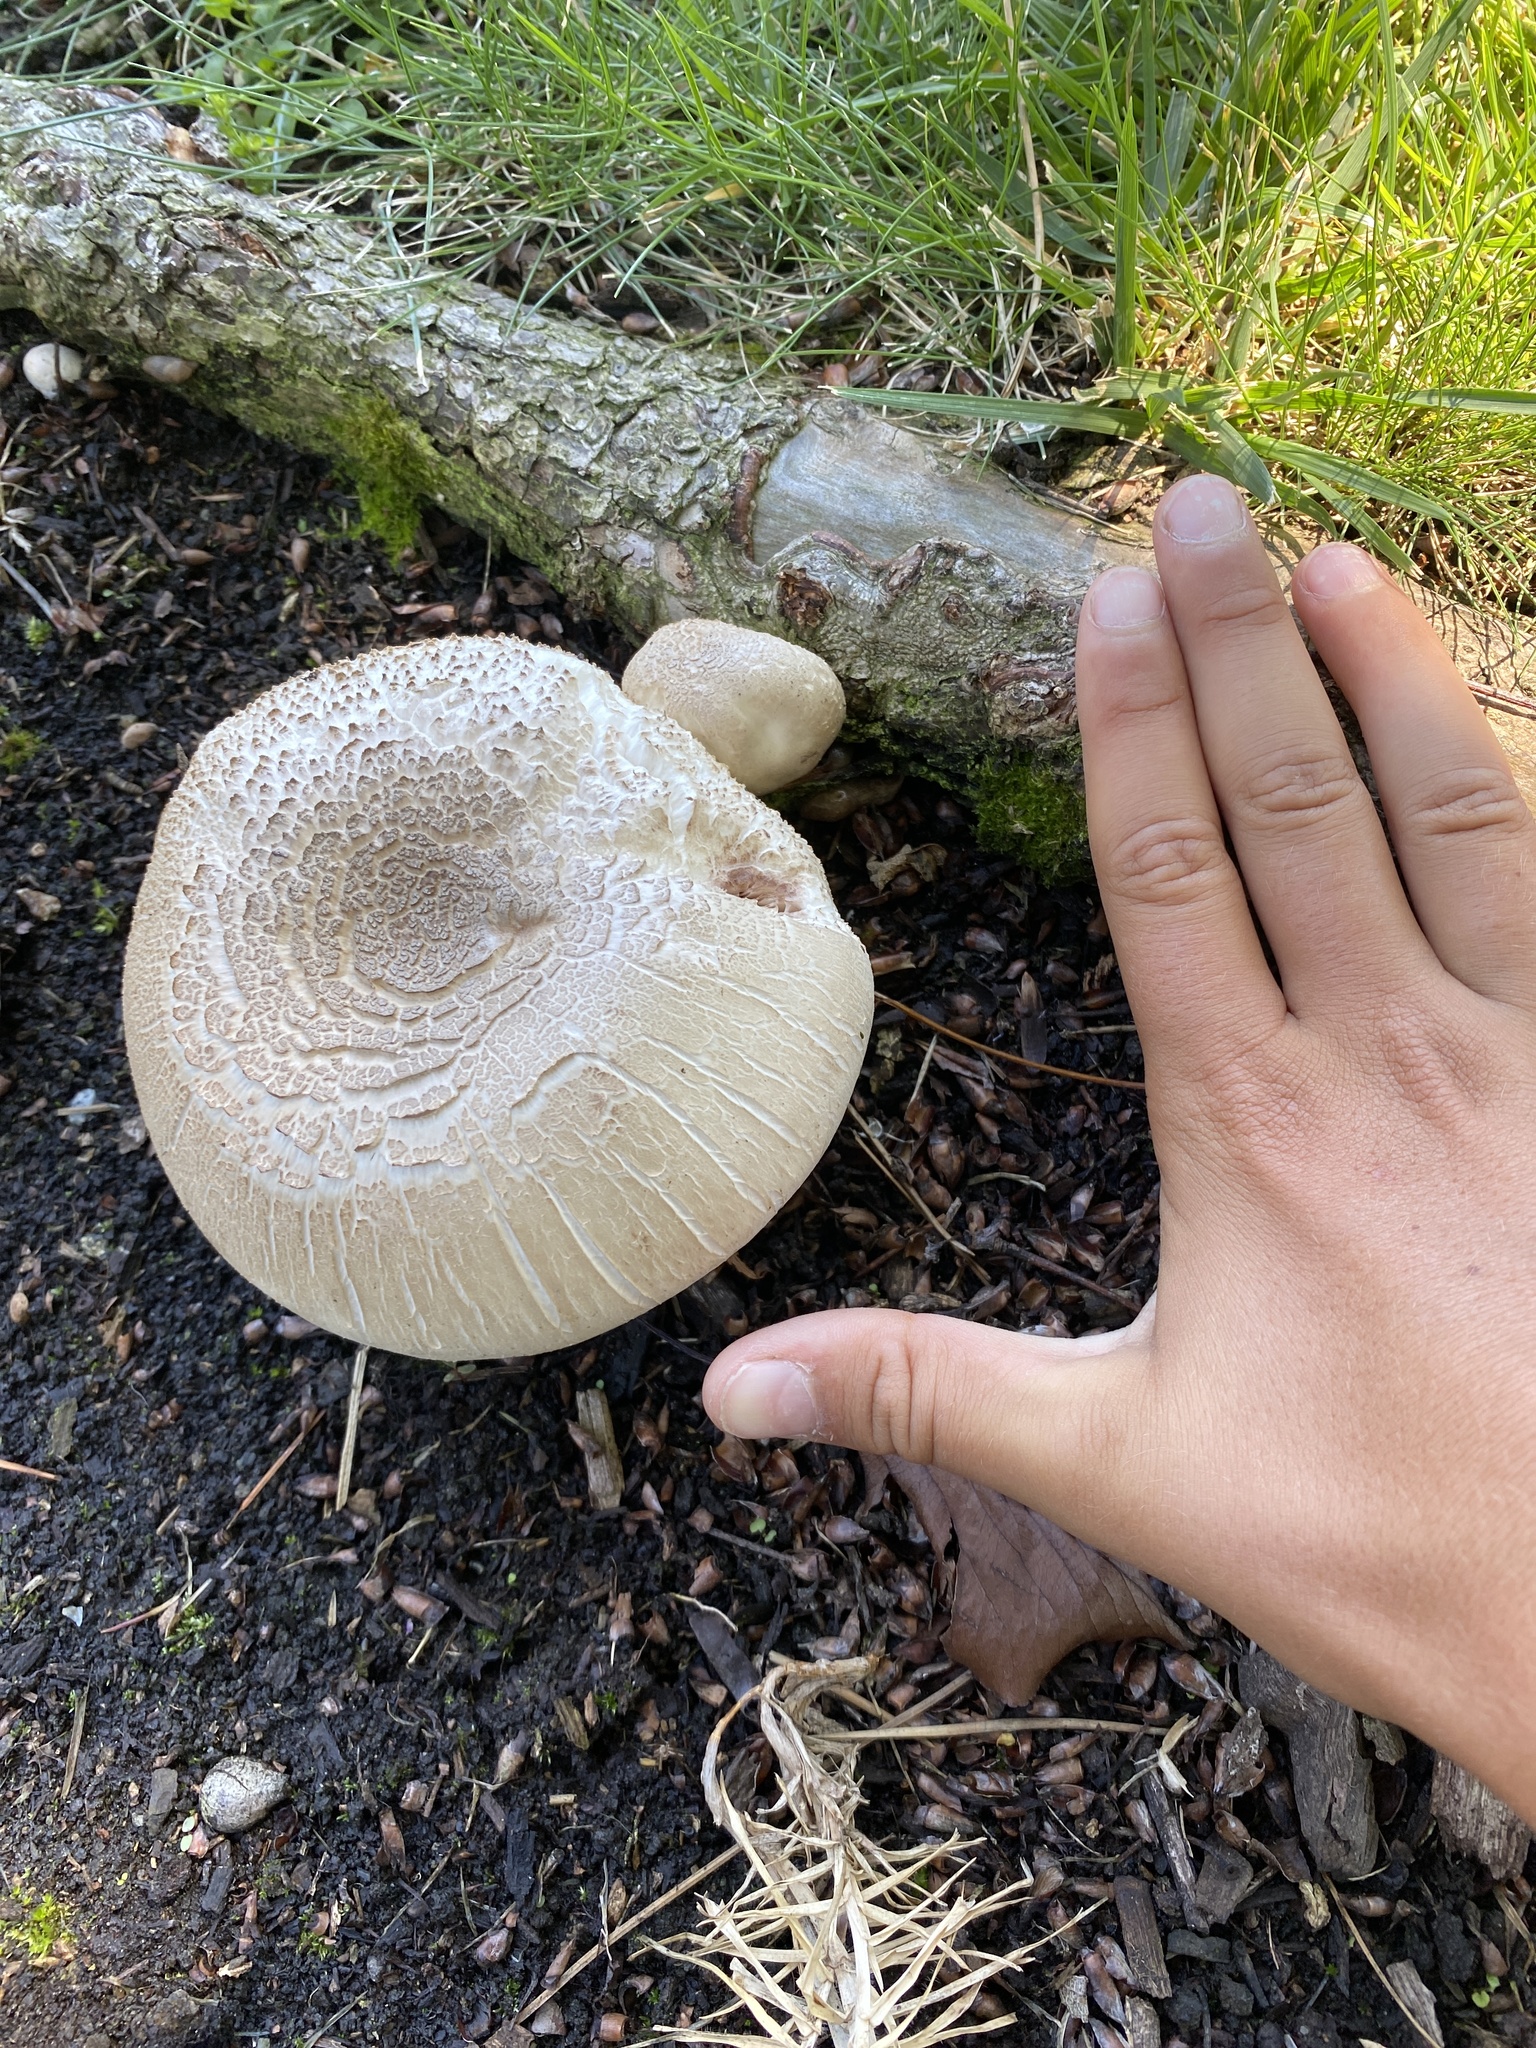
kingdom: Fungi
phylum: Basidiomycota
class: Agaricomycetes
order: Agaricales
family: Agaricaceae
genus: Agaricus
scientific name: Agaricus xanthodermus
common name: Yellow stainer
